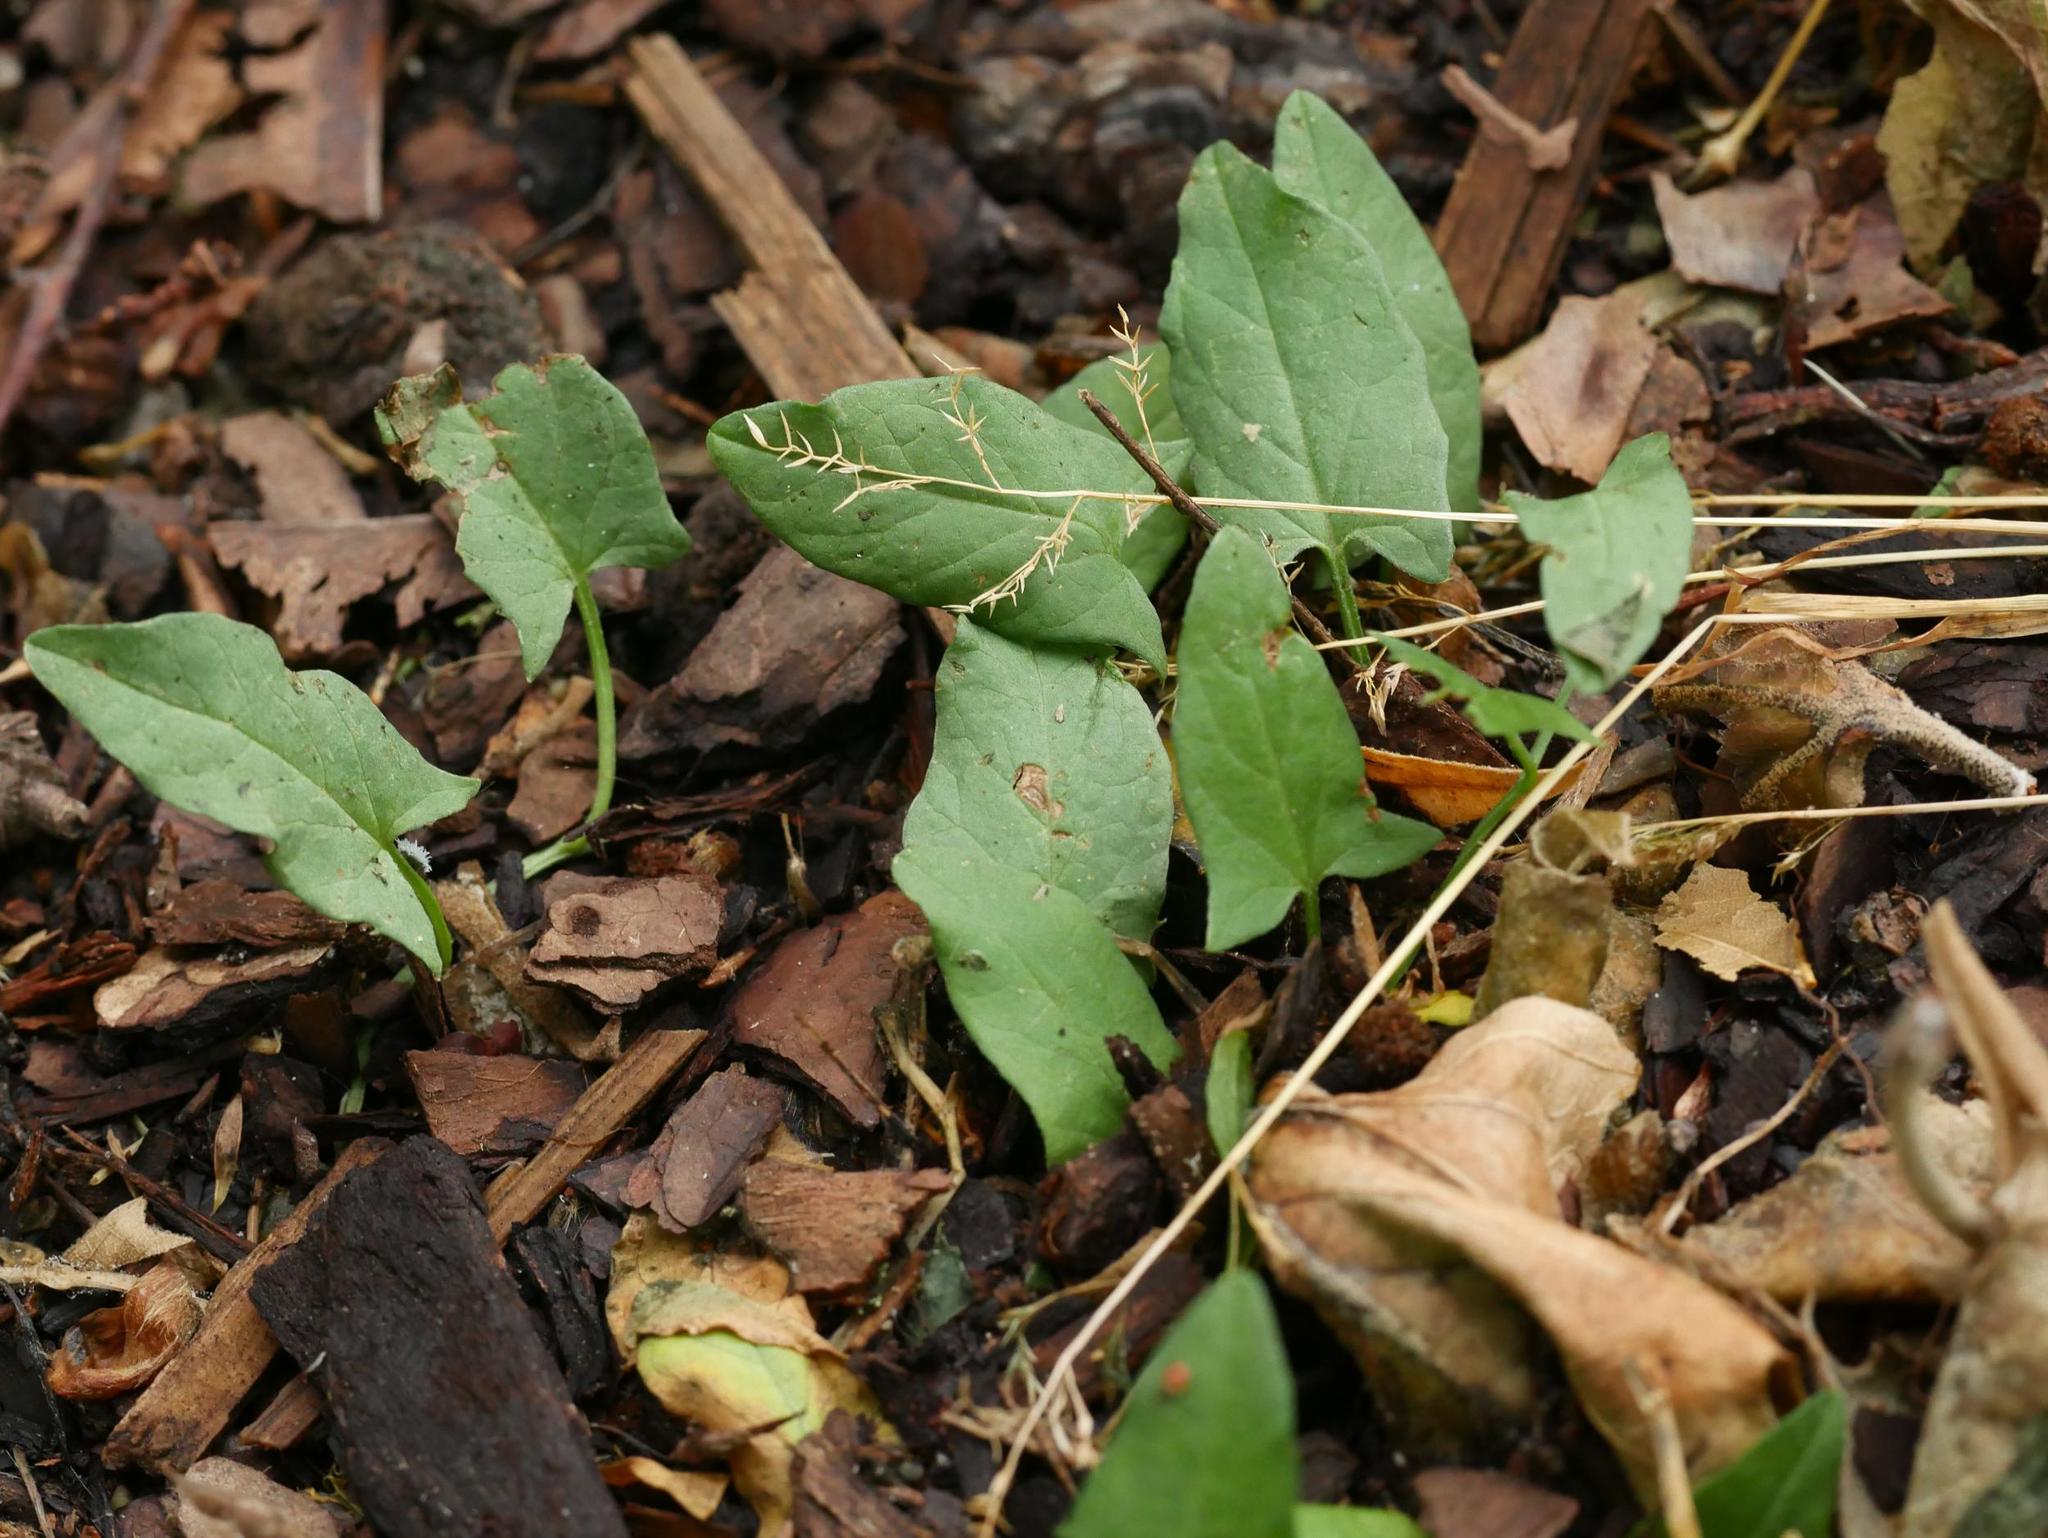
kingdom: Plantae
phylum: Tracheophyta
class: Magnoliopsida
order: Solanales
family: Convolvulaceae
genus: Convolvulus
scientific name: Convolvulus arvensis
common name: Field bindweed
